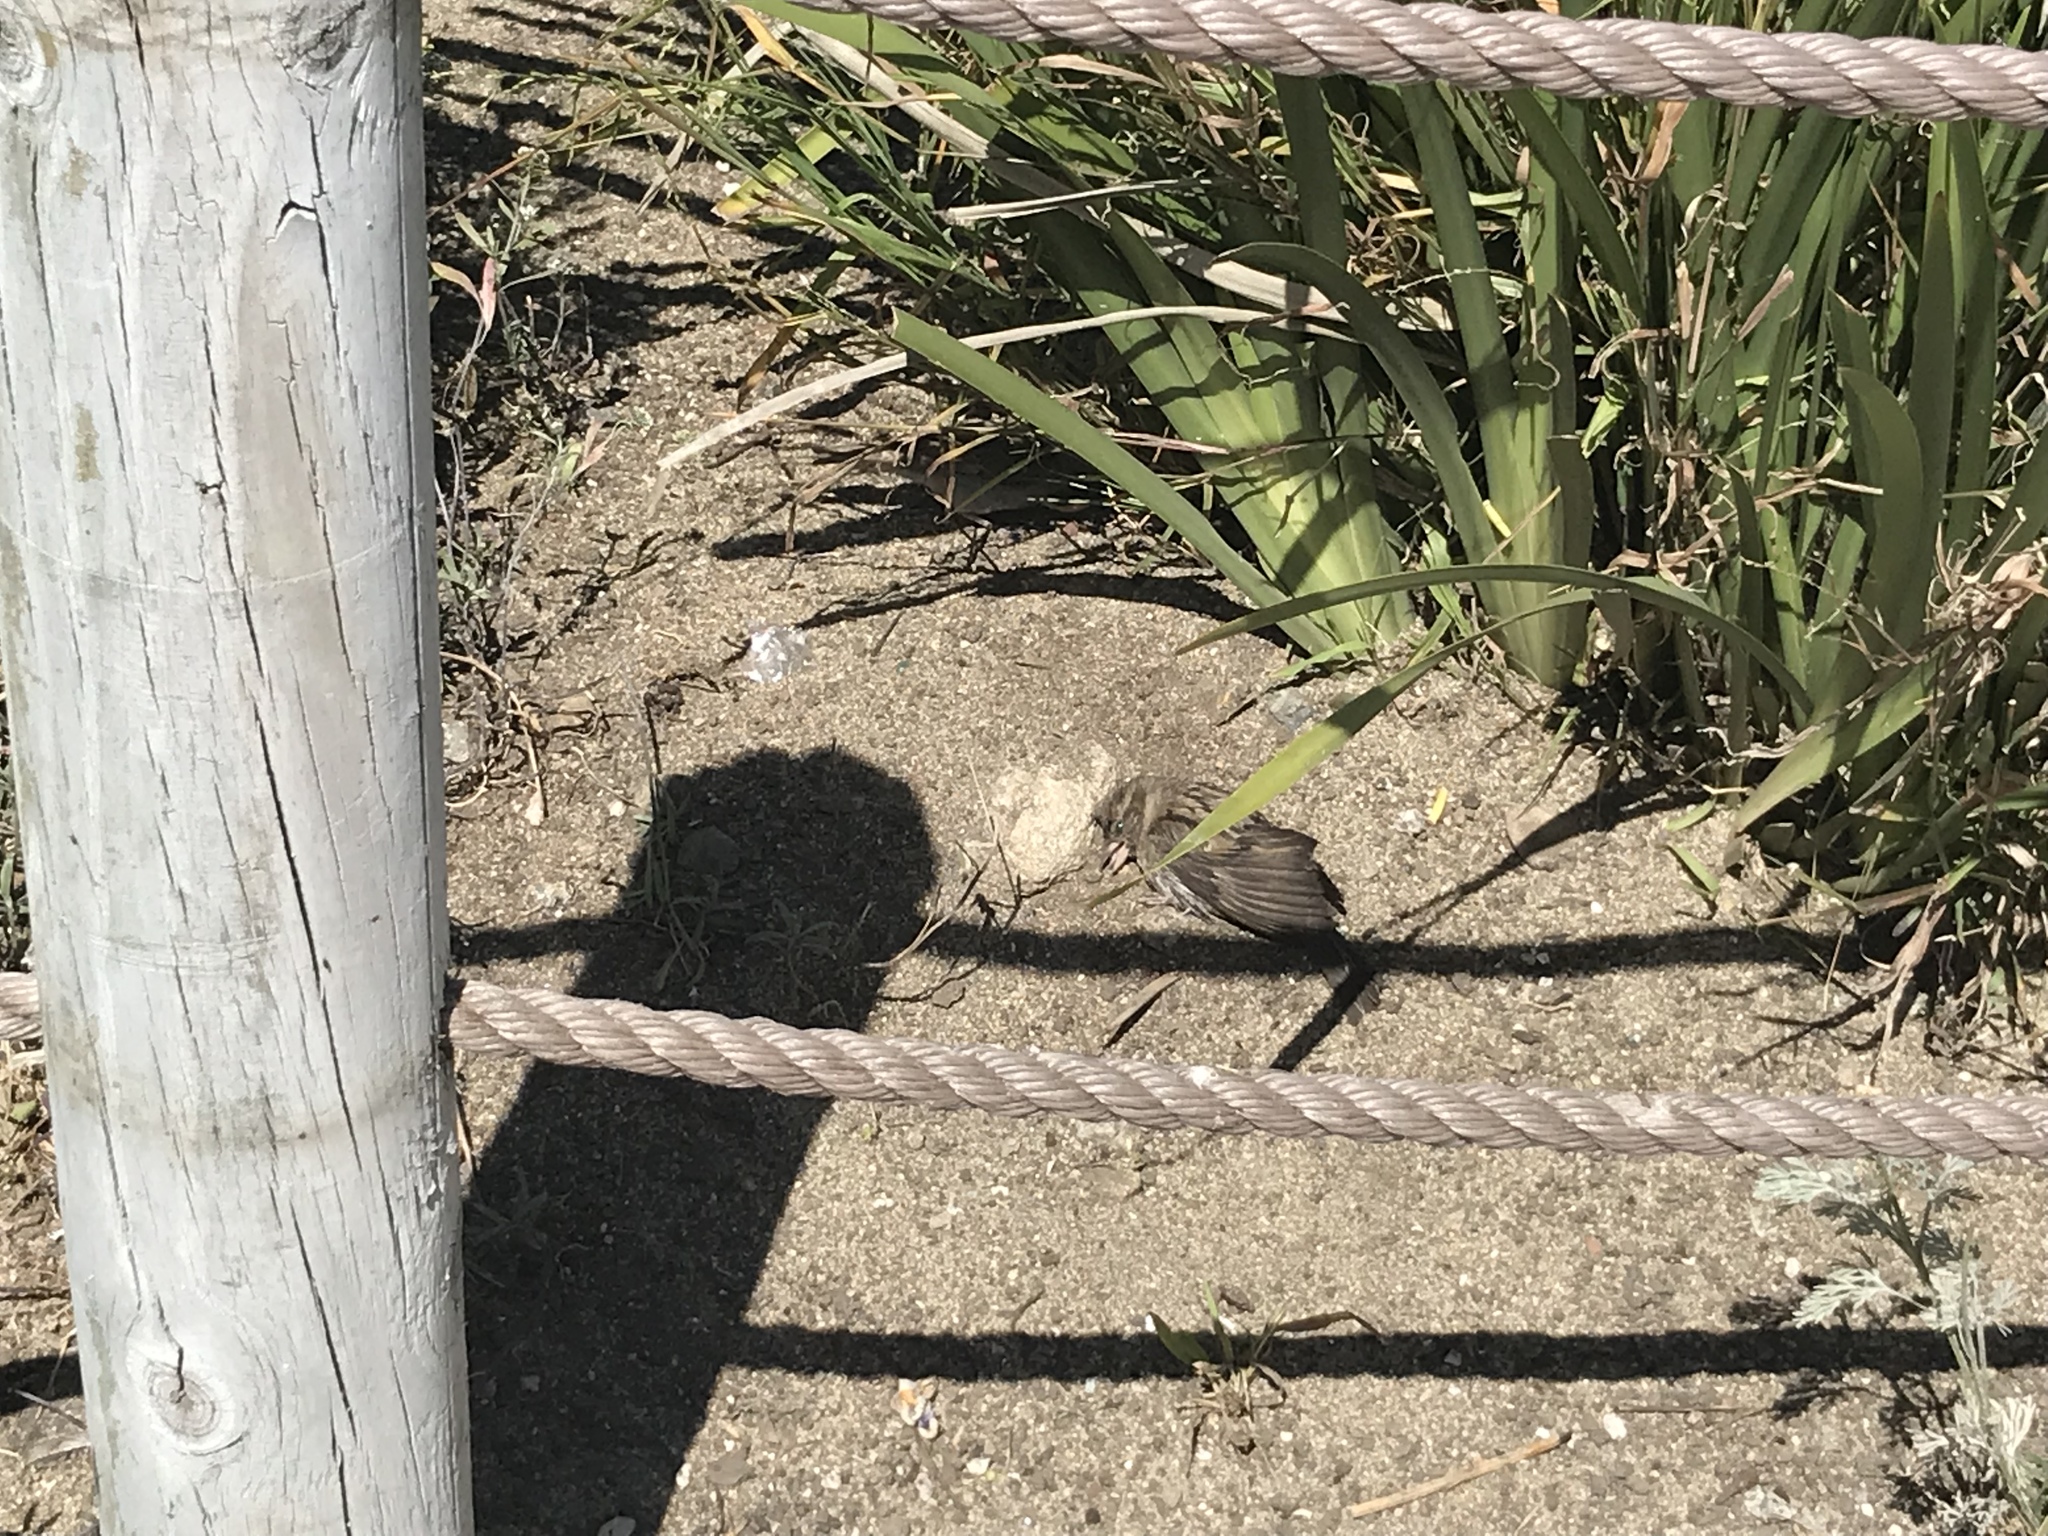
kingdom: Animalia
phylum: Chordata
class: Aves
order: Passeriformes
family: Passeridae
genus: Passer
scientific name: Passer domesticus
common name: House sparrow
